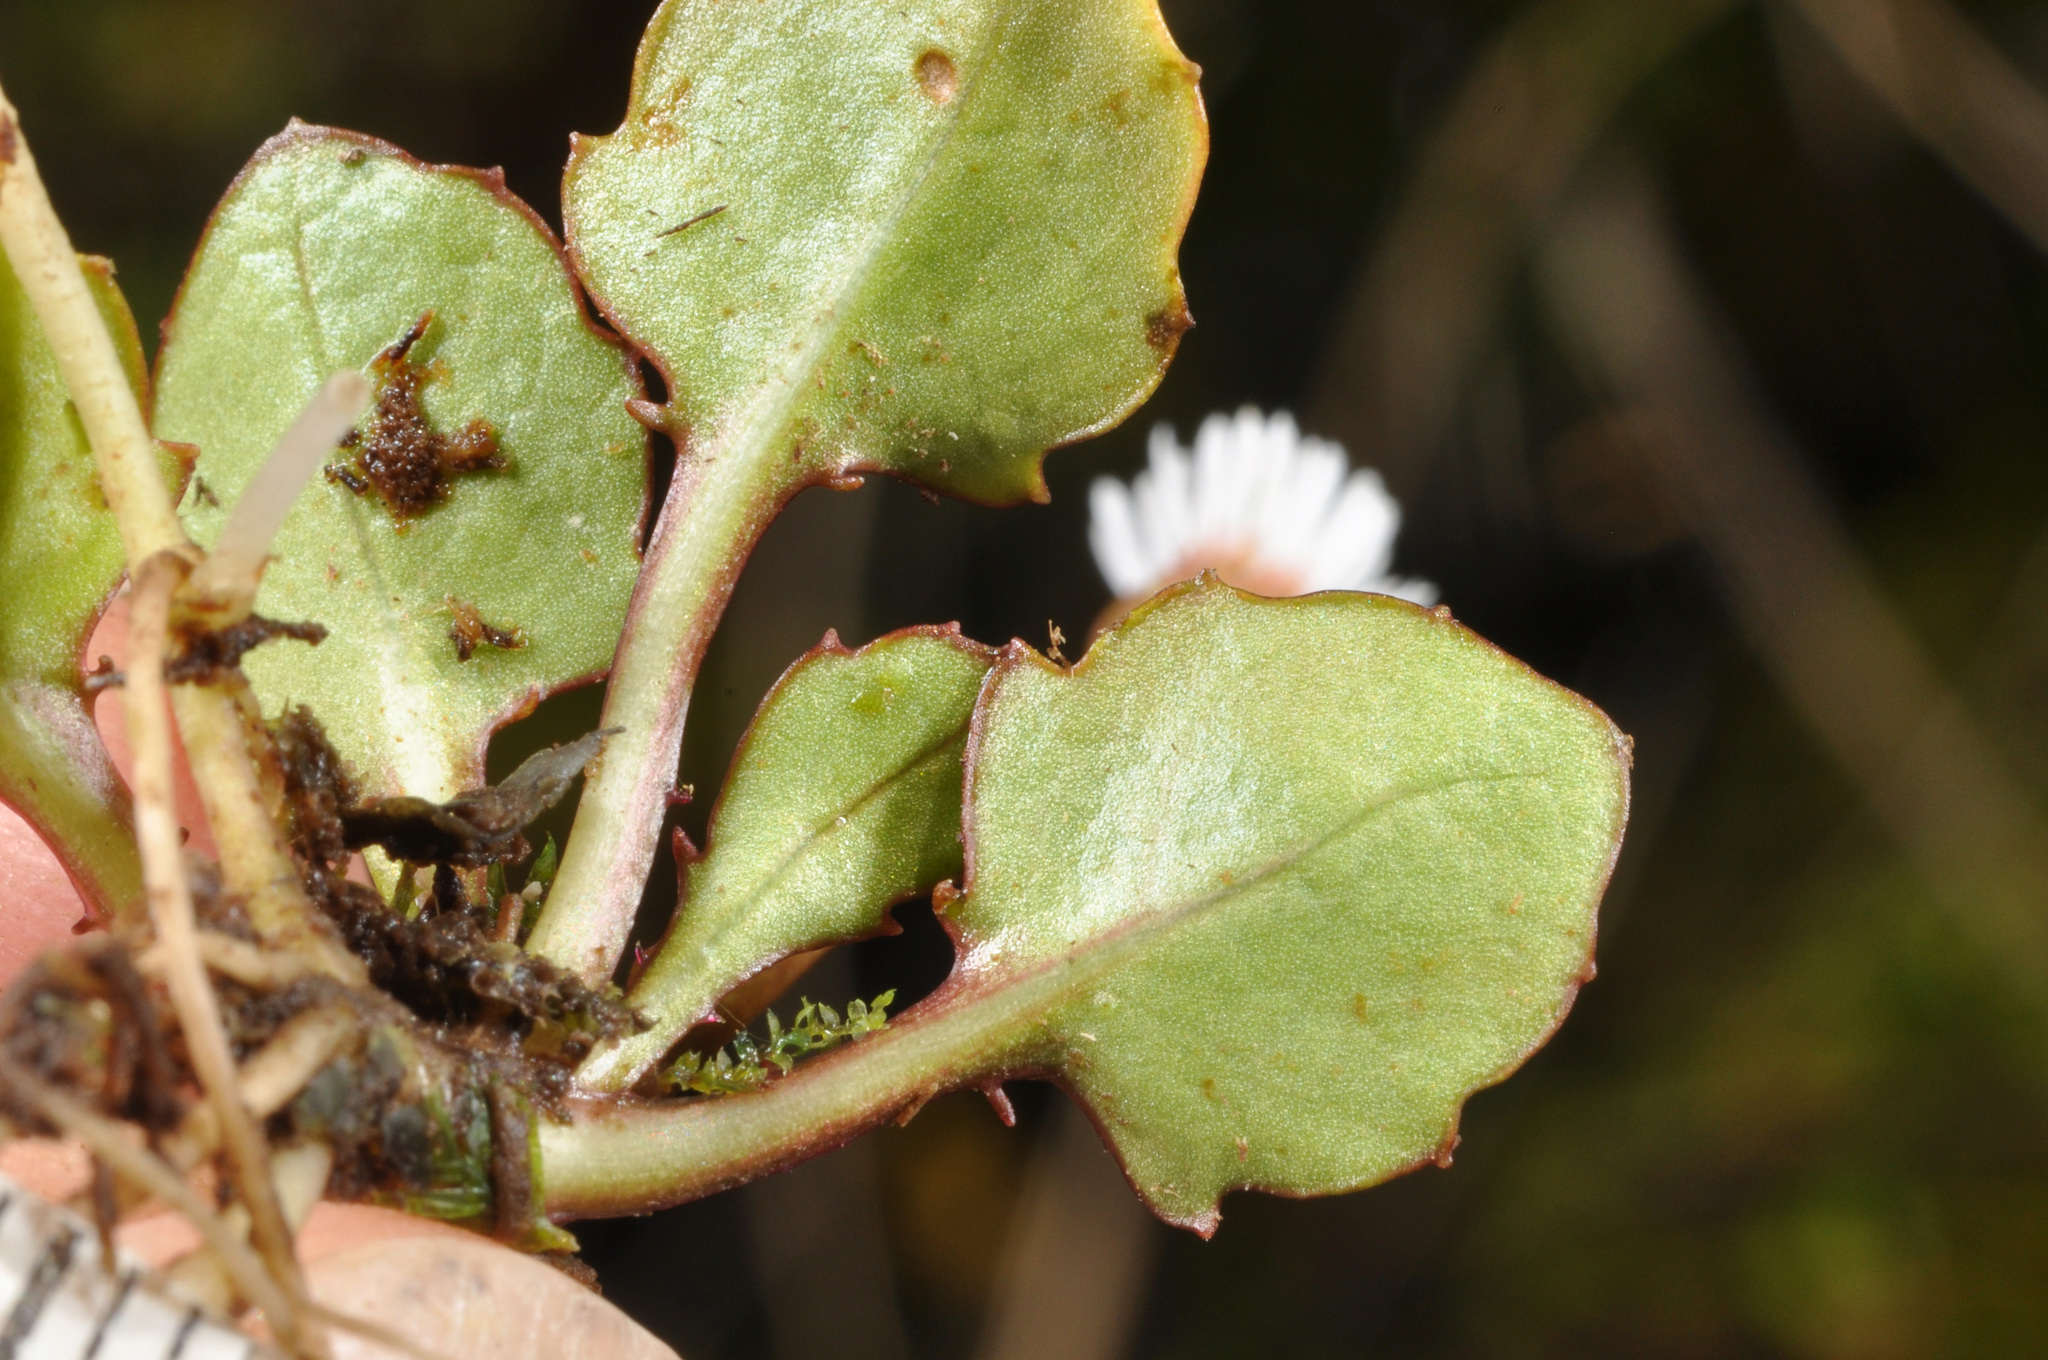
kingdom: Plantae
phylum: Tracheophyta
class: Magnoliopsida
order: Asterales
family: Asteraceae
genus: Lagenophora
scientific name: Lagenophora pumila
